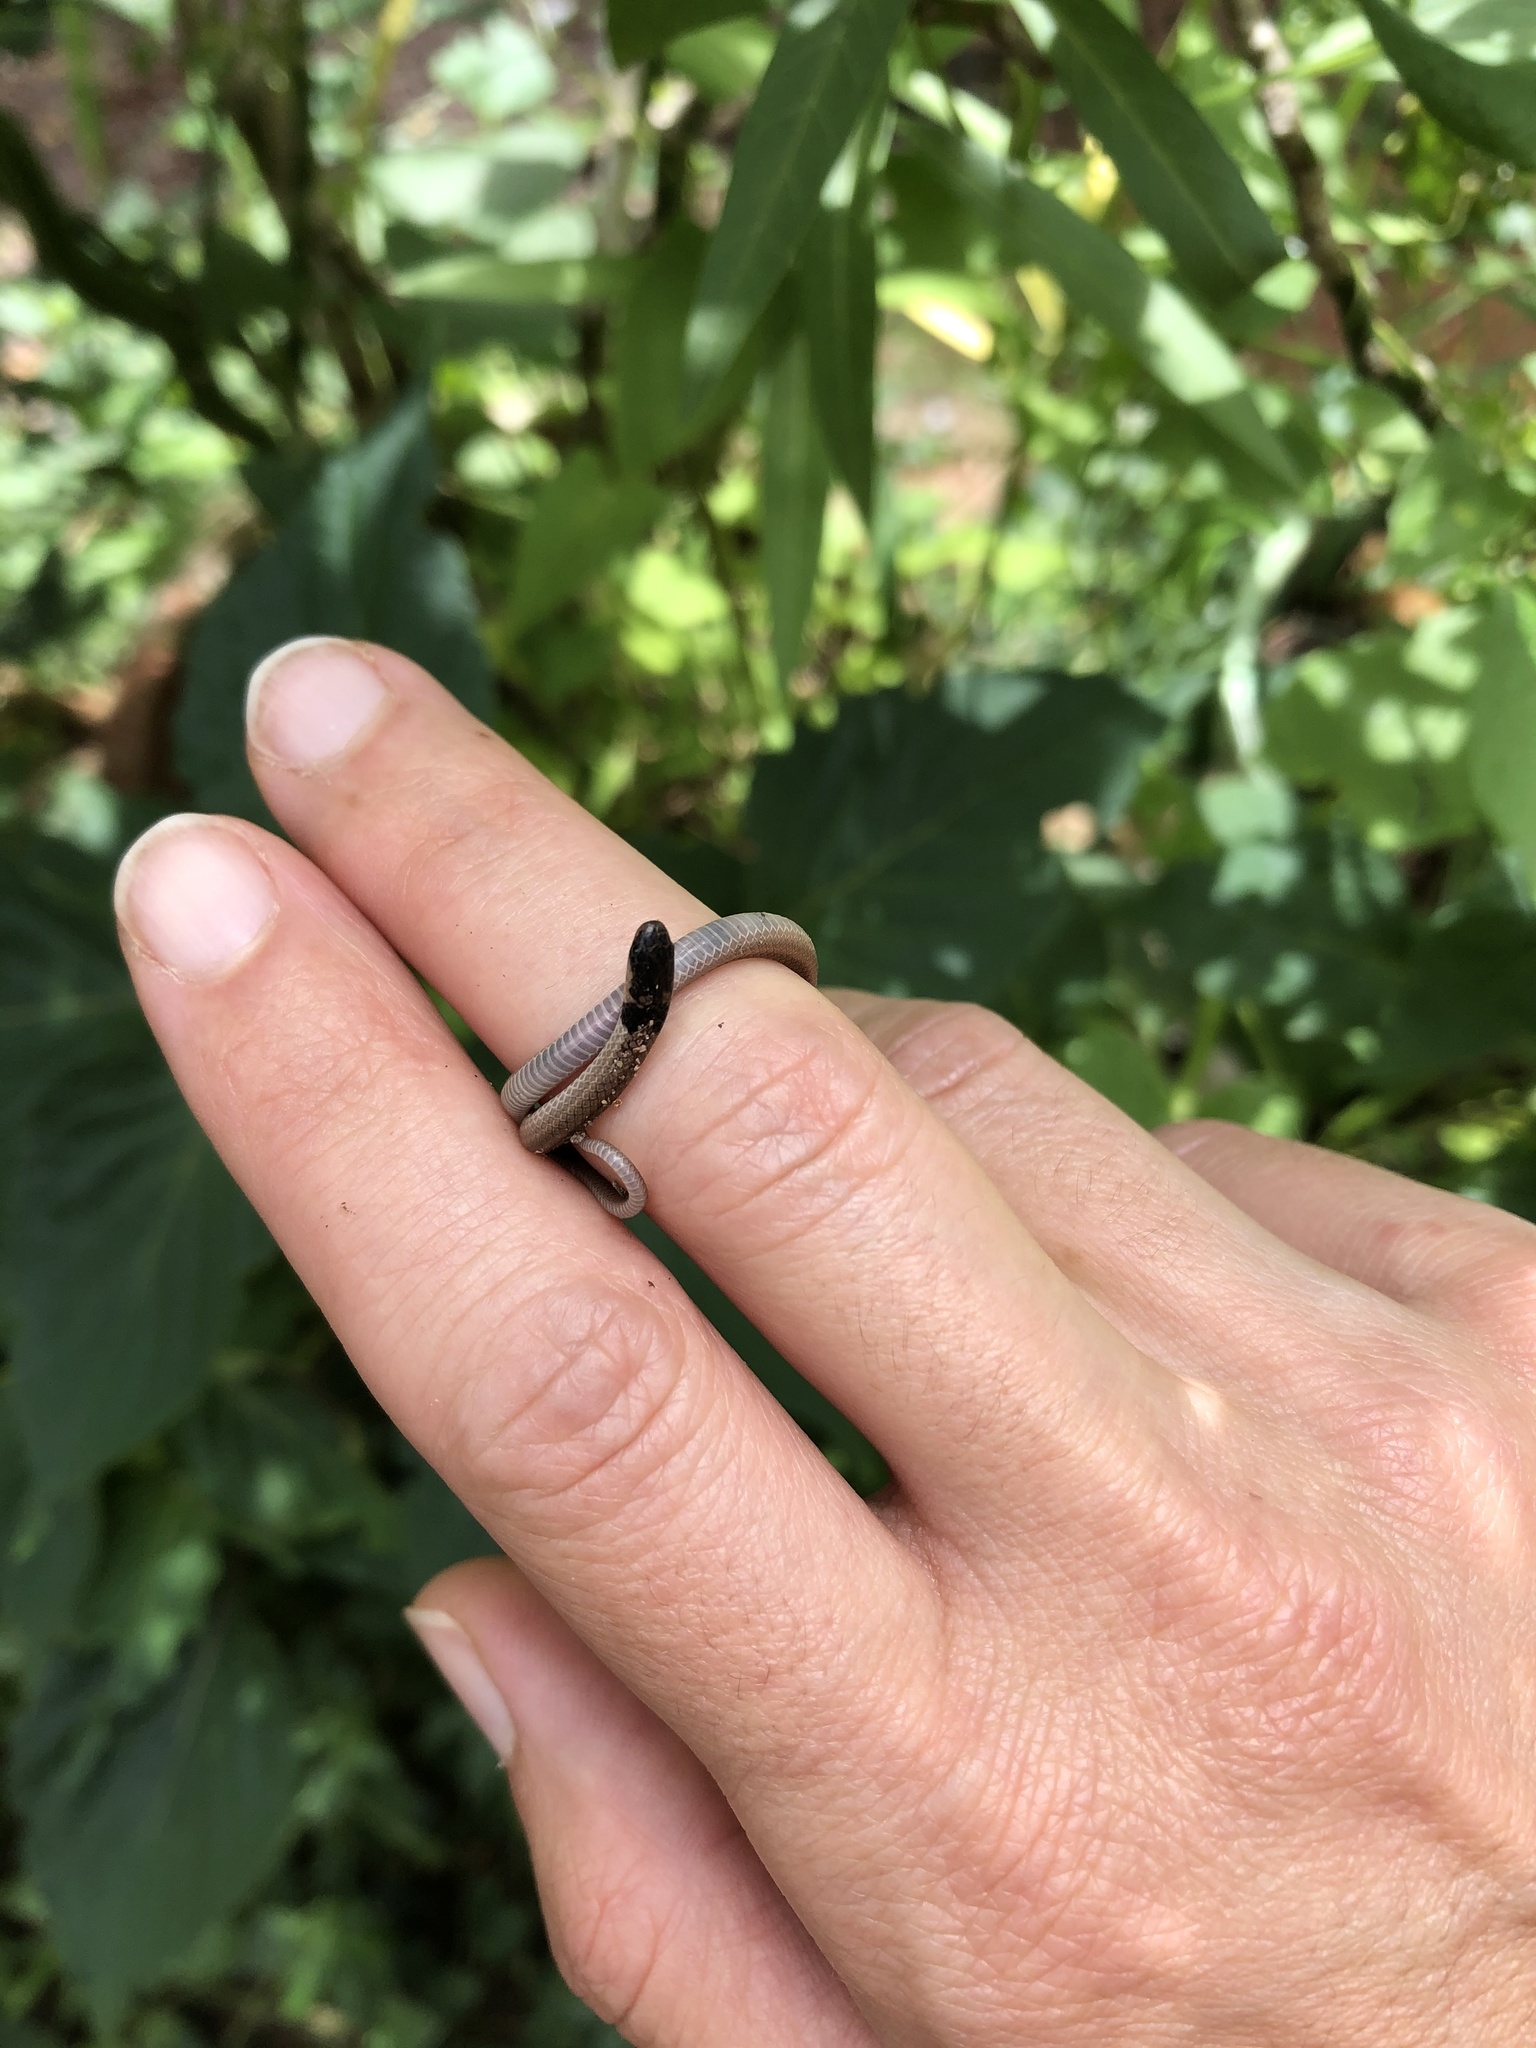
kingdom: Animalia
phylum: Chordata
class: Squamata
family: Atractaspididae
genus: Aparallactus
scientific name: Aparallactus capensis
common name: Cape centipede eater
